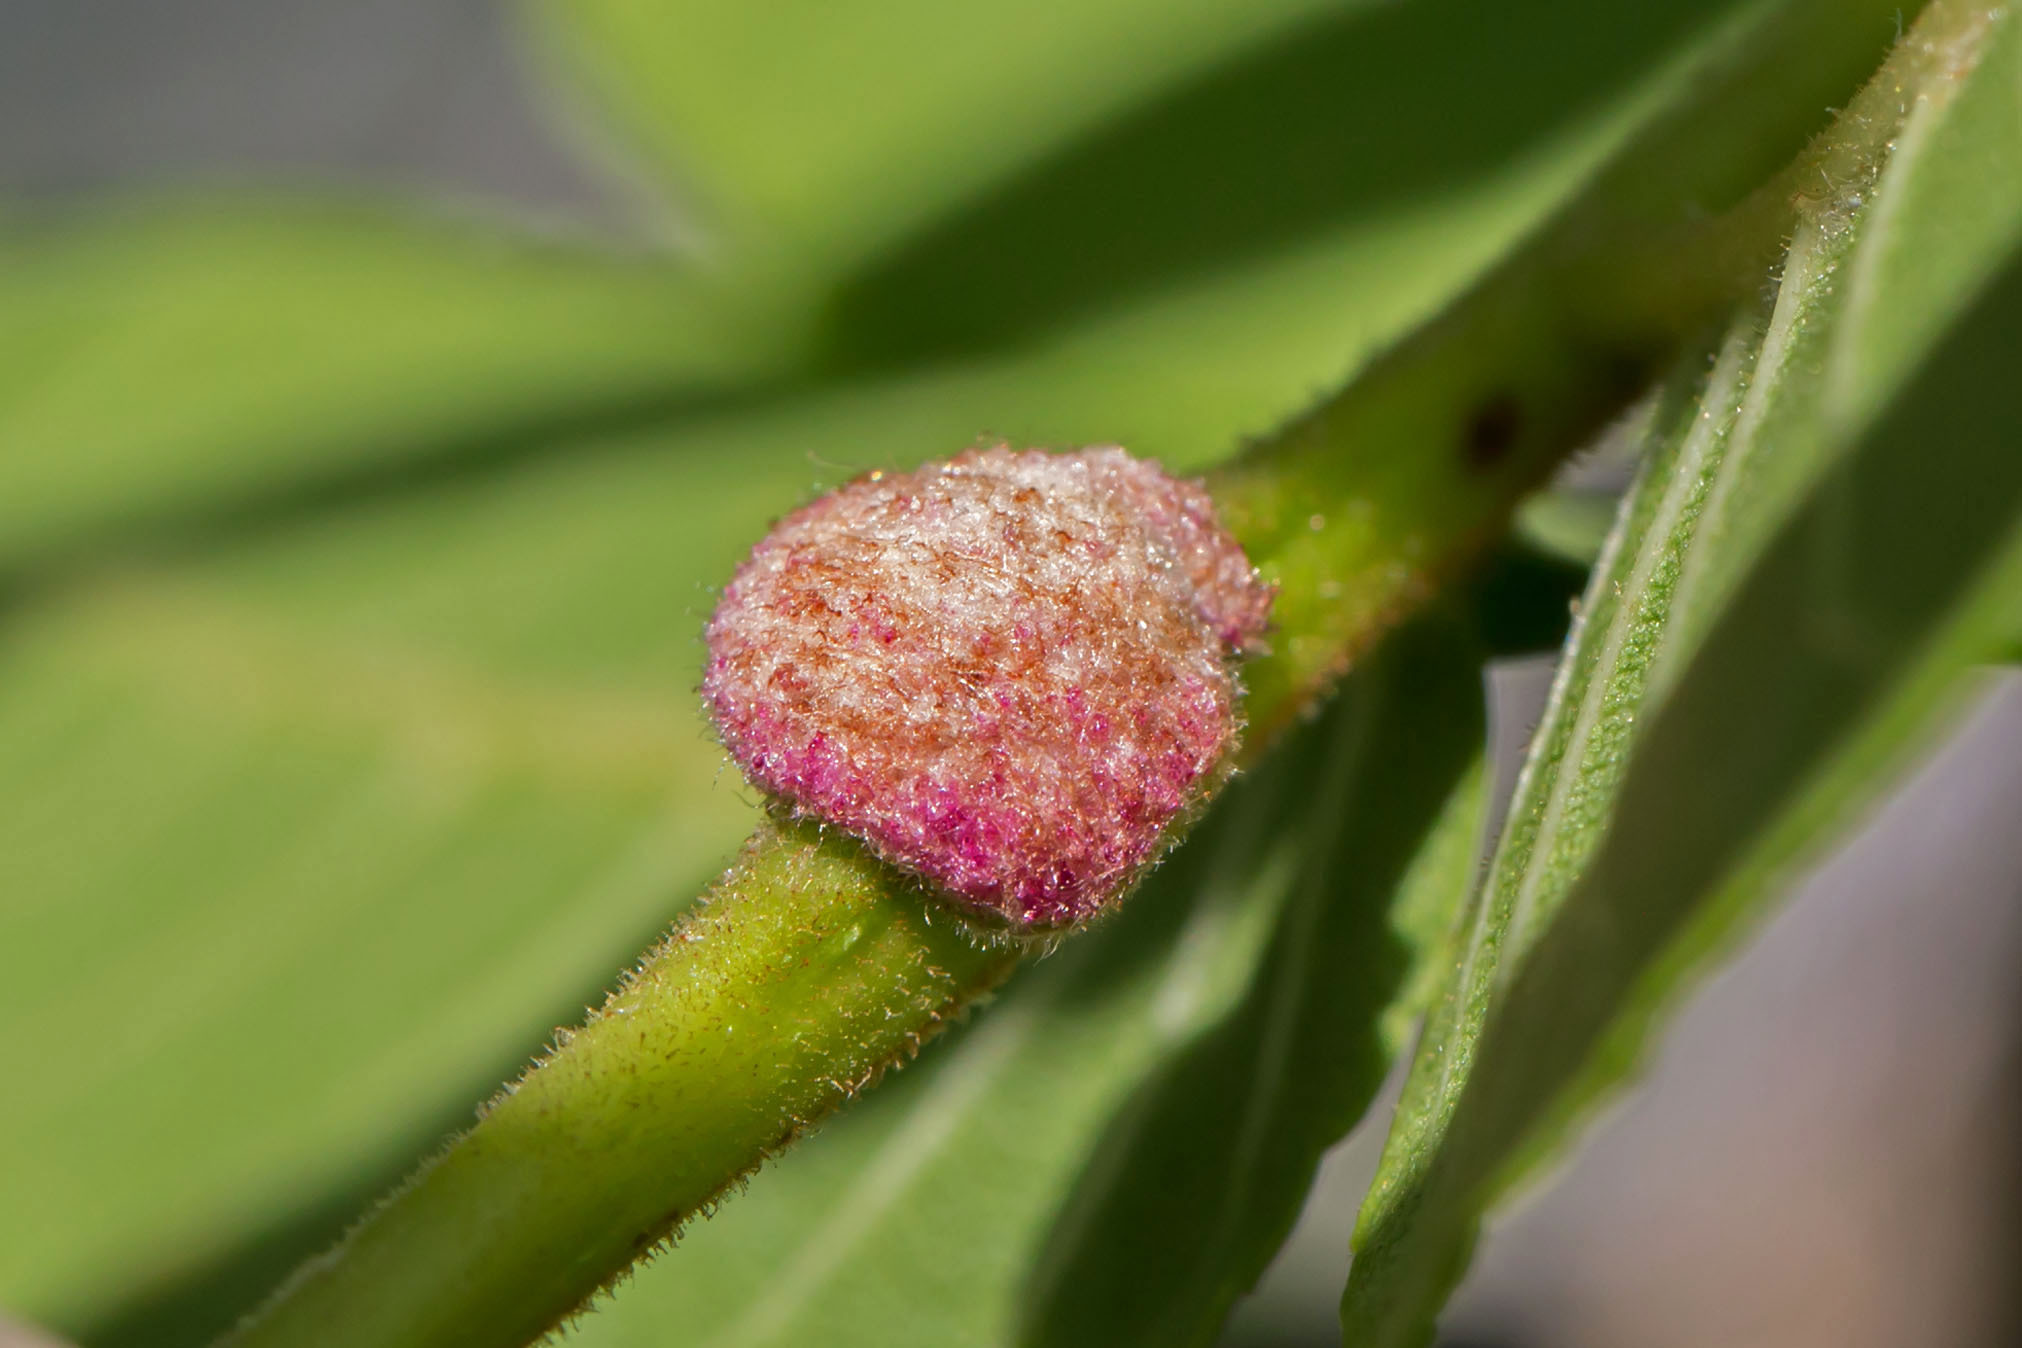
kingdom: Animalia
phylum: Arthropoda
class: Arachnida
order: Trombidiformes
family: Eriophyidae
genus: Aceria
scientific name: Aceria
